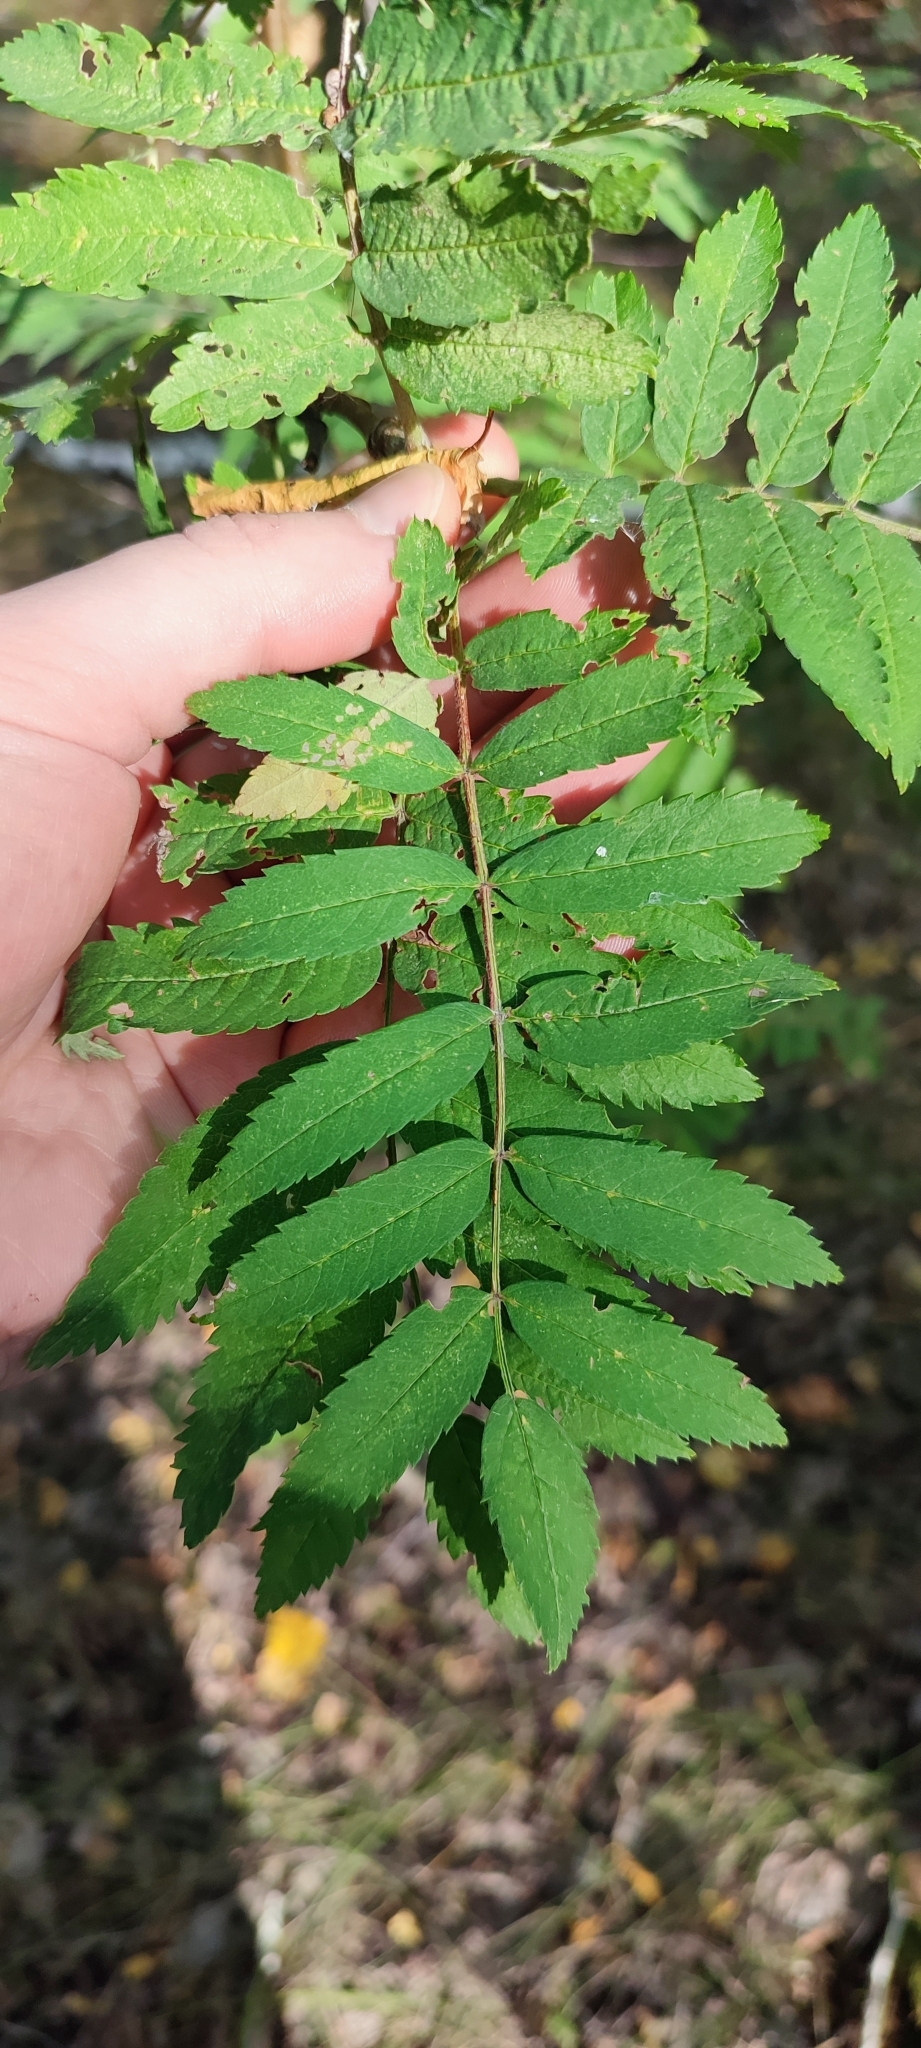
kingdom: Plantae
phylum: Tracheophyta
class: Magnoliopsida
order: Rosales
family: Rosaceae
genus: Sorbus
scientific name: Sorbus aucuparia
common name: Rowan
